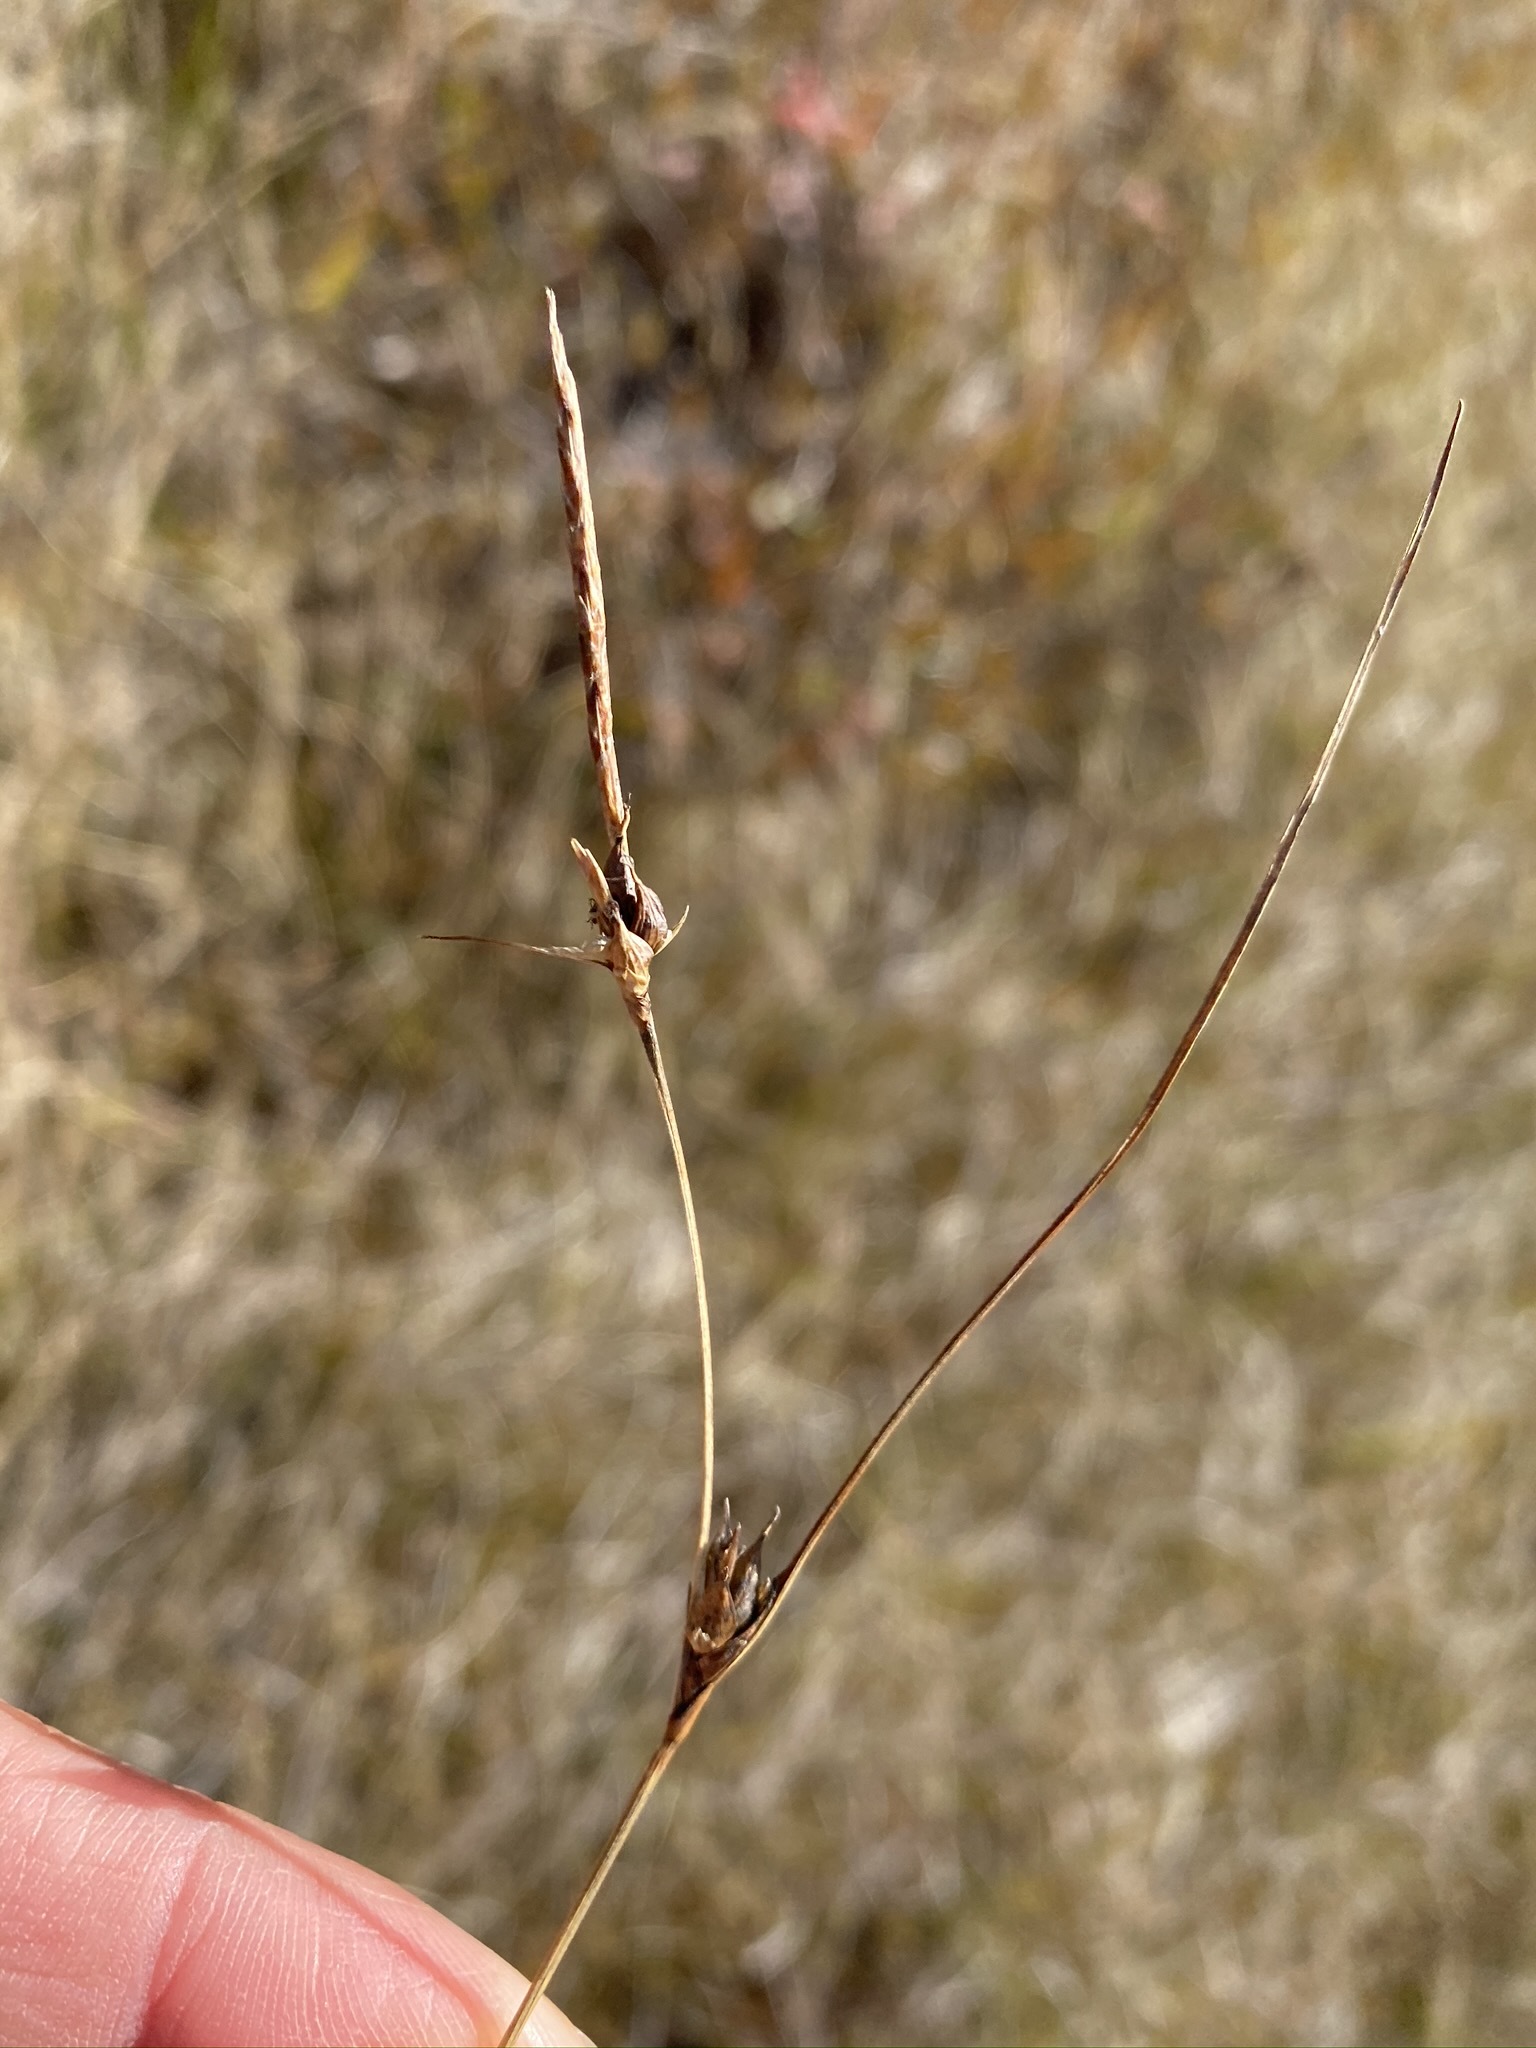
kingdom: Plantae
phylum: Tracheophyta
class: Liliopsida
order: Poales
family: Cyperaceae
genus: Carex
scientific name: Carex oligosperma
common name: Few-seed sedge
